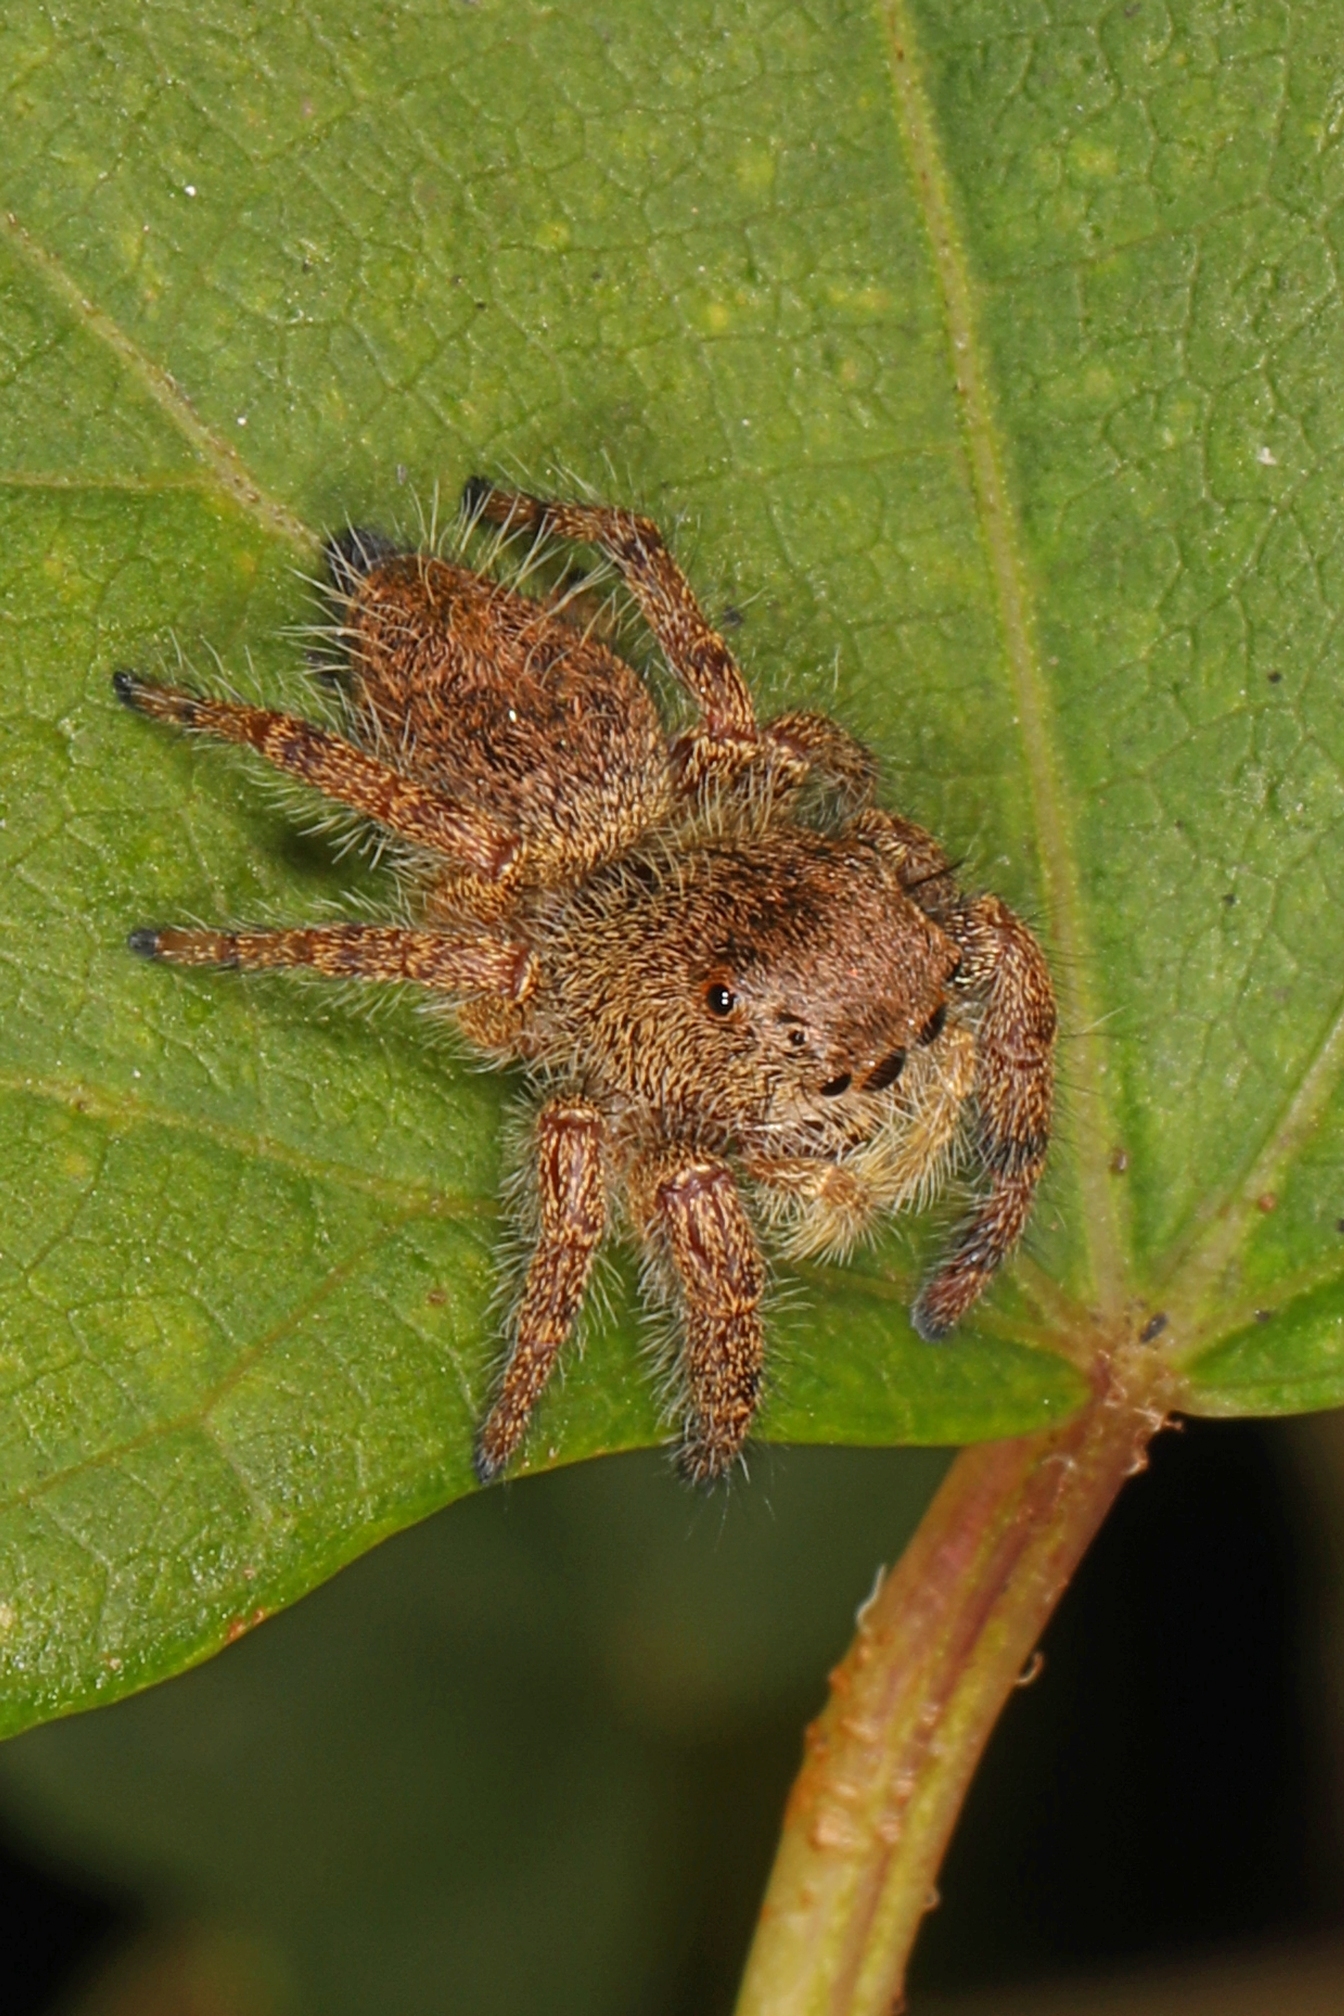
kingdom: Animalia
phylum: Arthropoda
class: Arachnida
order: Araneae
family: Salticidae
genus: Phidippus
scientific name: Phidippus princeps
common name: Grayish jumping spider
